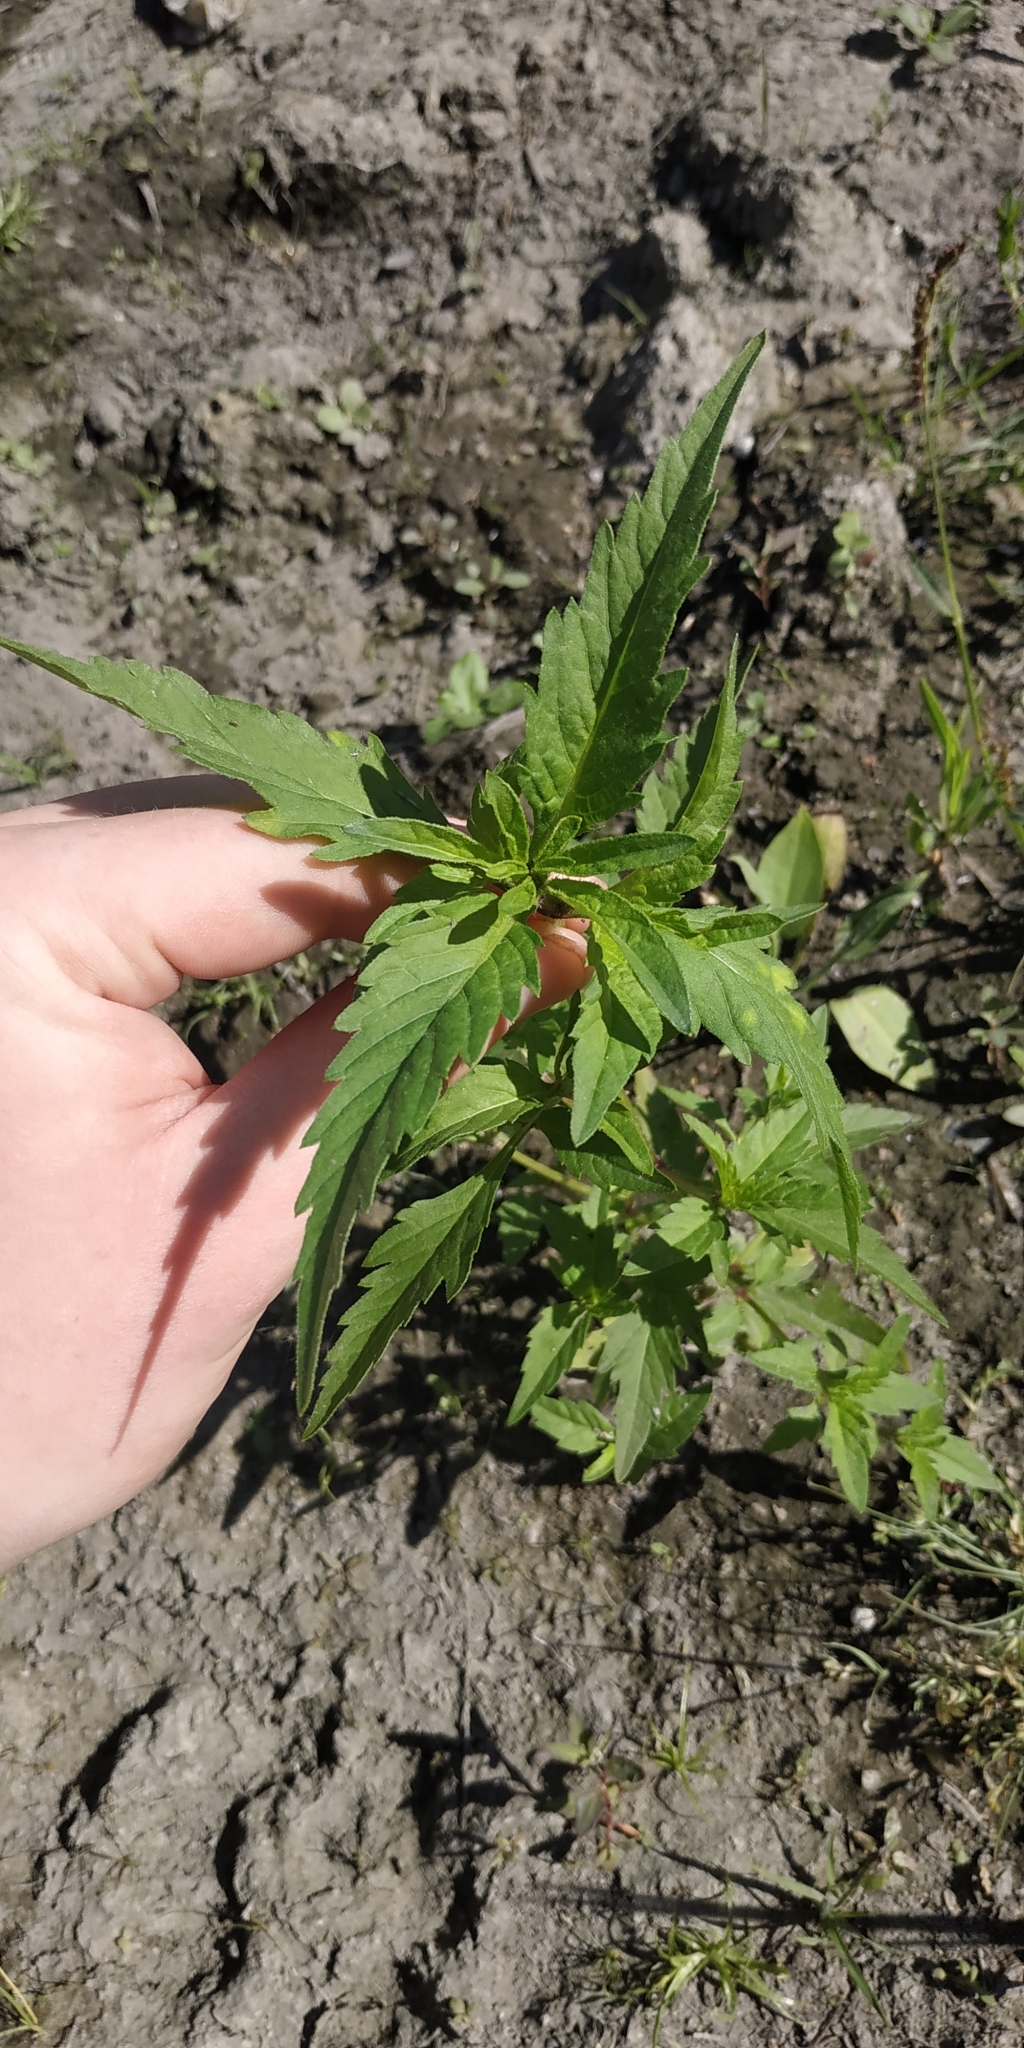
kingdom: Plantae
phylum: Tracheophyta
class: Magnoliopsida
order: Asterales
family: Asteraceae
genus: Bidens
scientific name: Bidens tripartita
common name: Trifid bur-marigold
